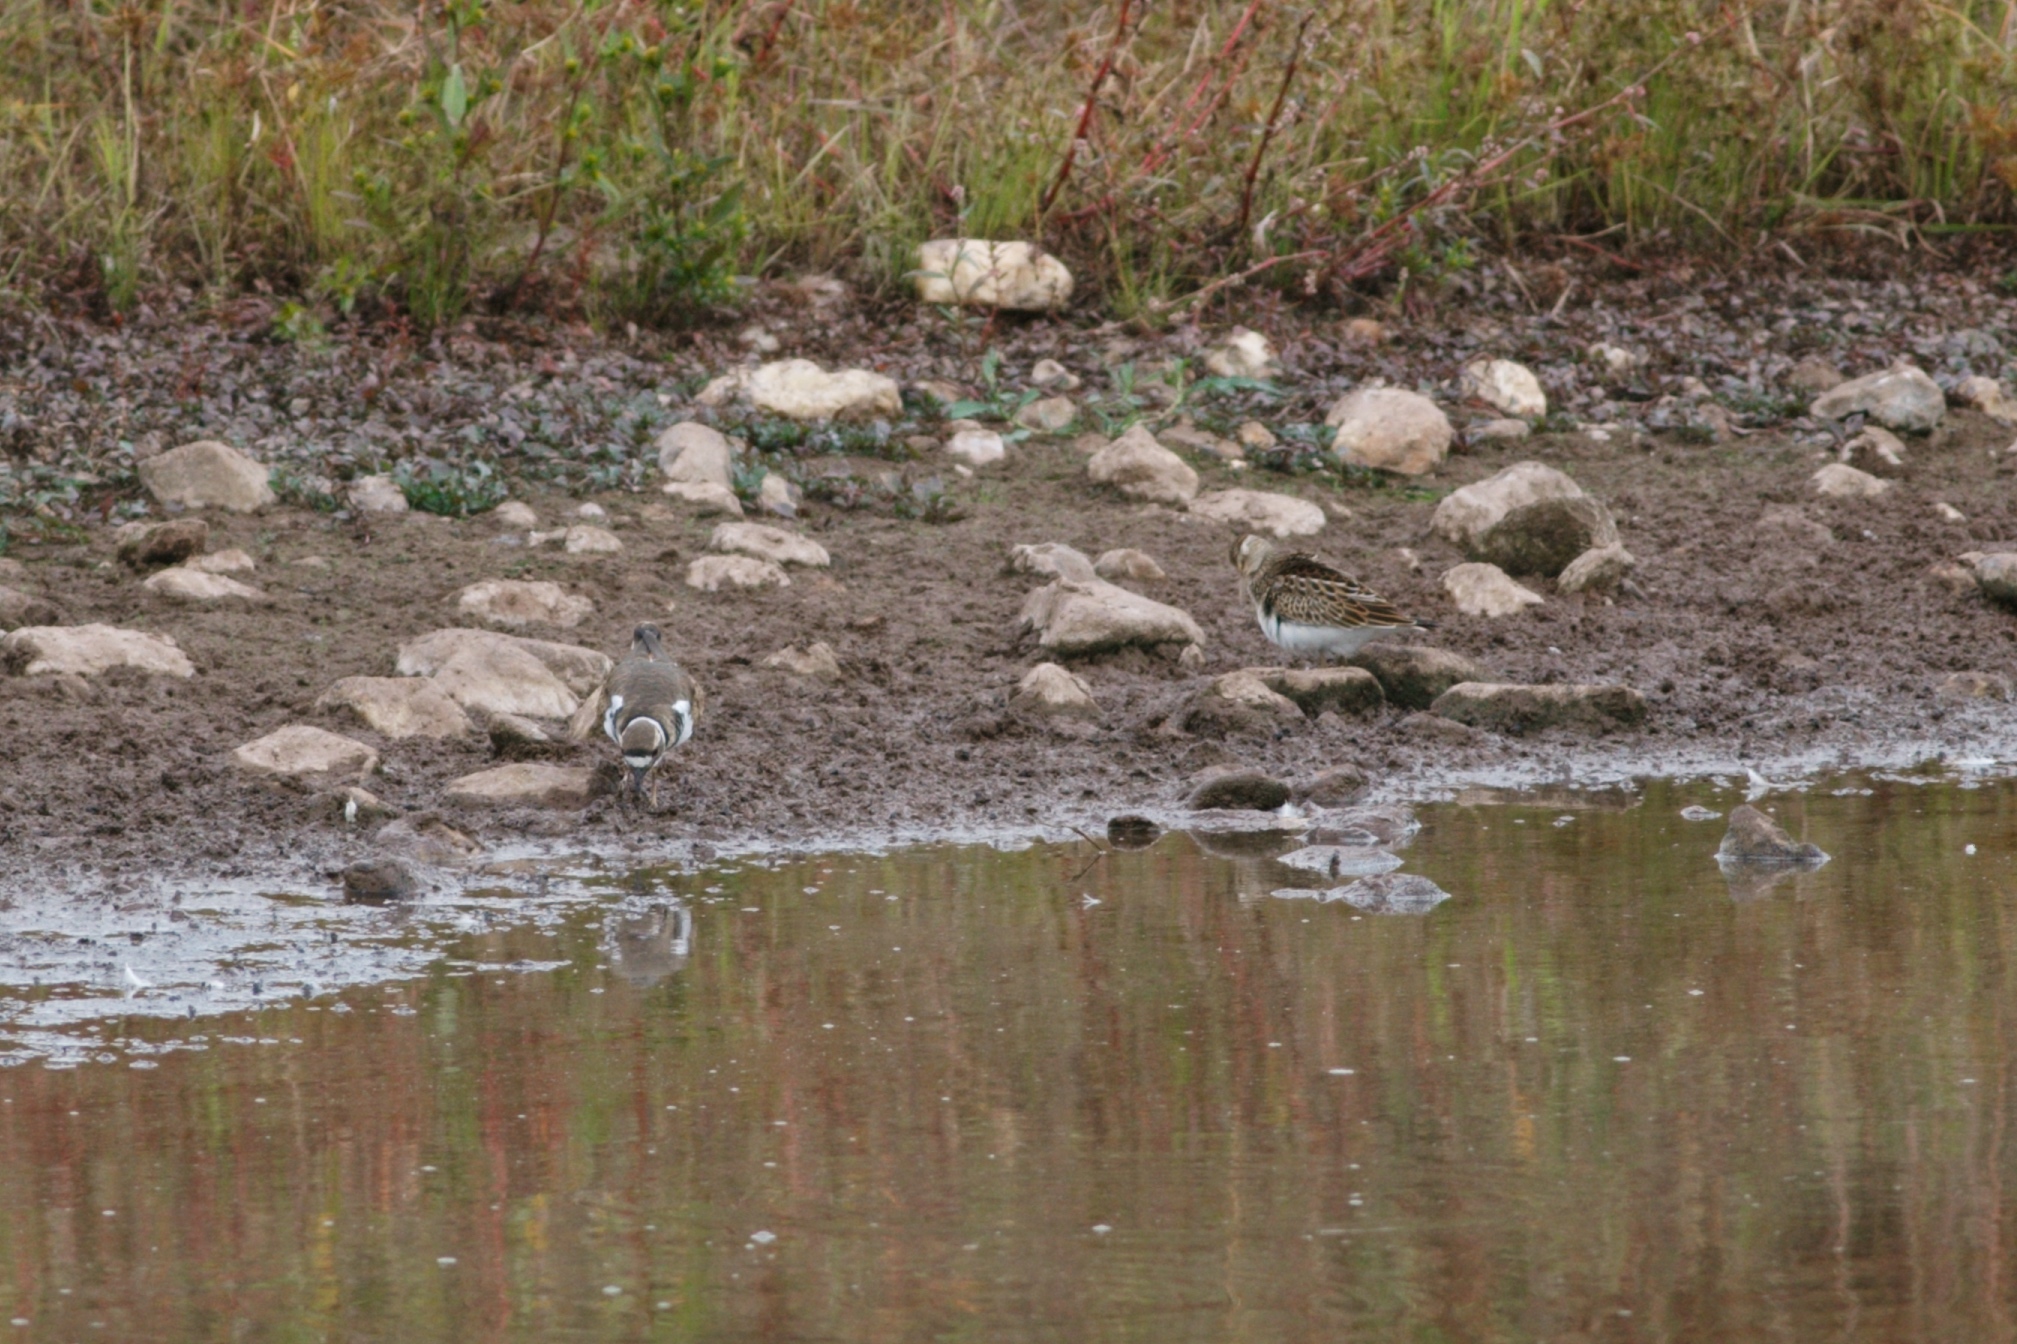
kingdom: Animalia
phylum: Chordata
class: Aves
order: Charadriiformes
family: Scolopacidae
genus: Calidris
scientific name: Calidris melanotos
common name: Pectoral sandpiper
